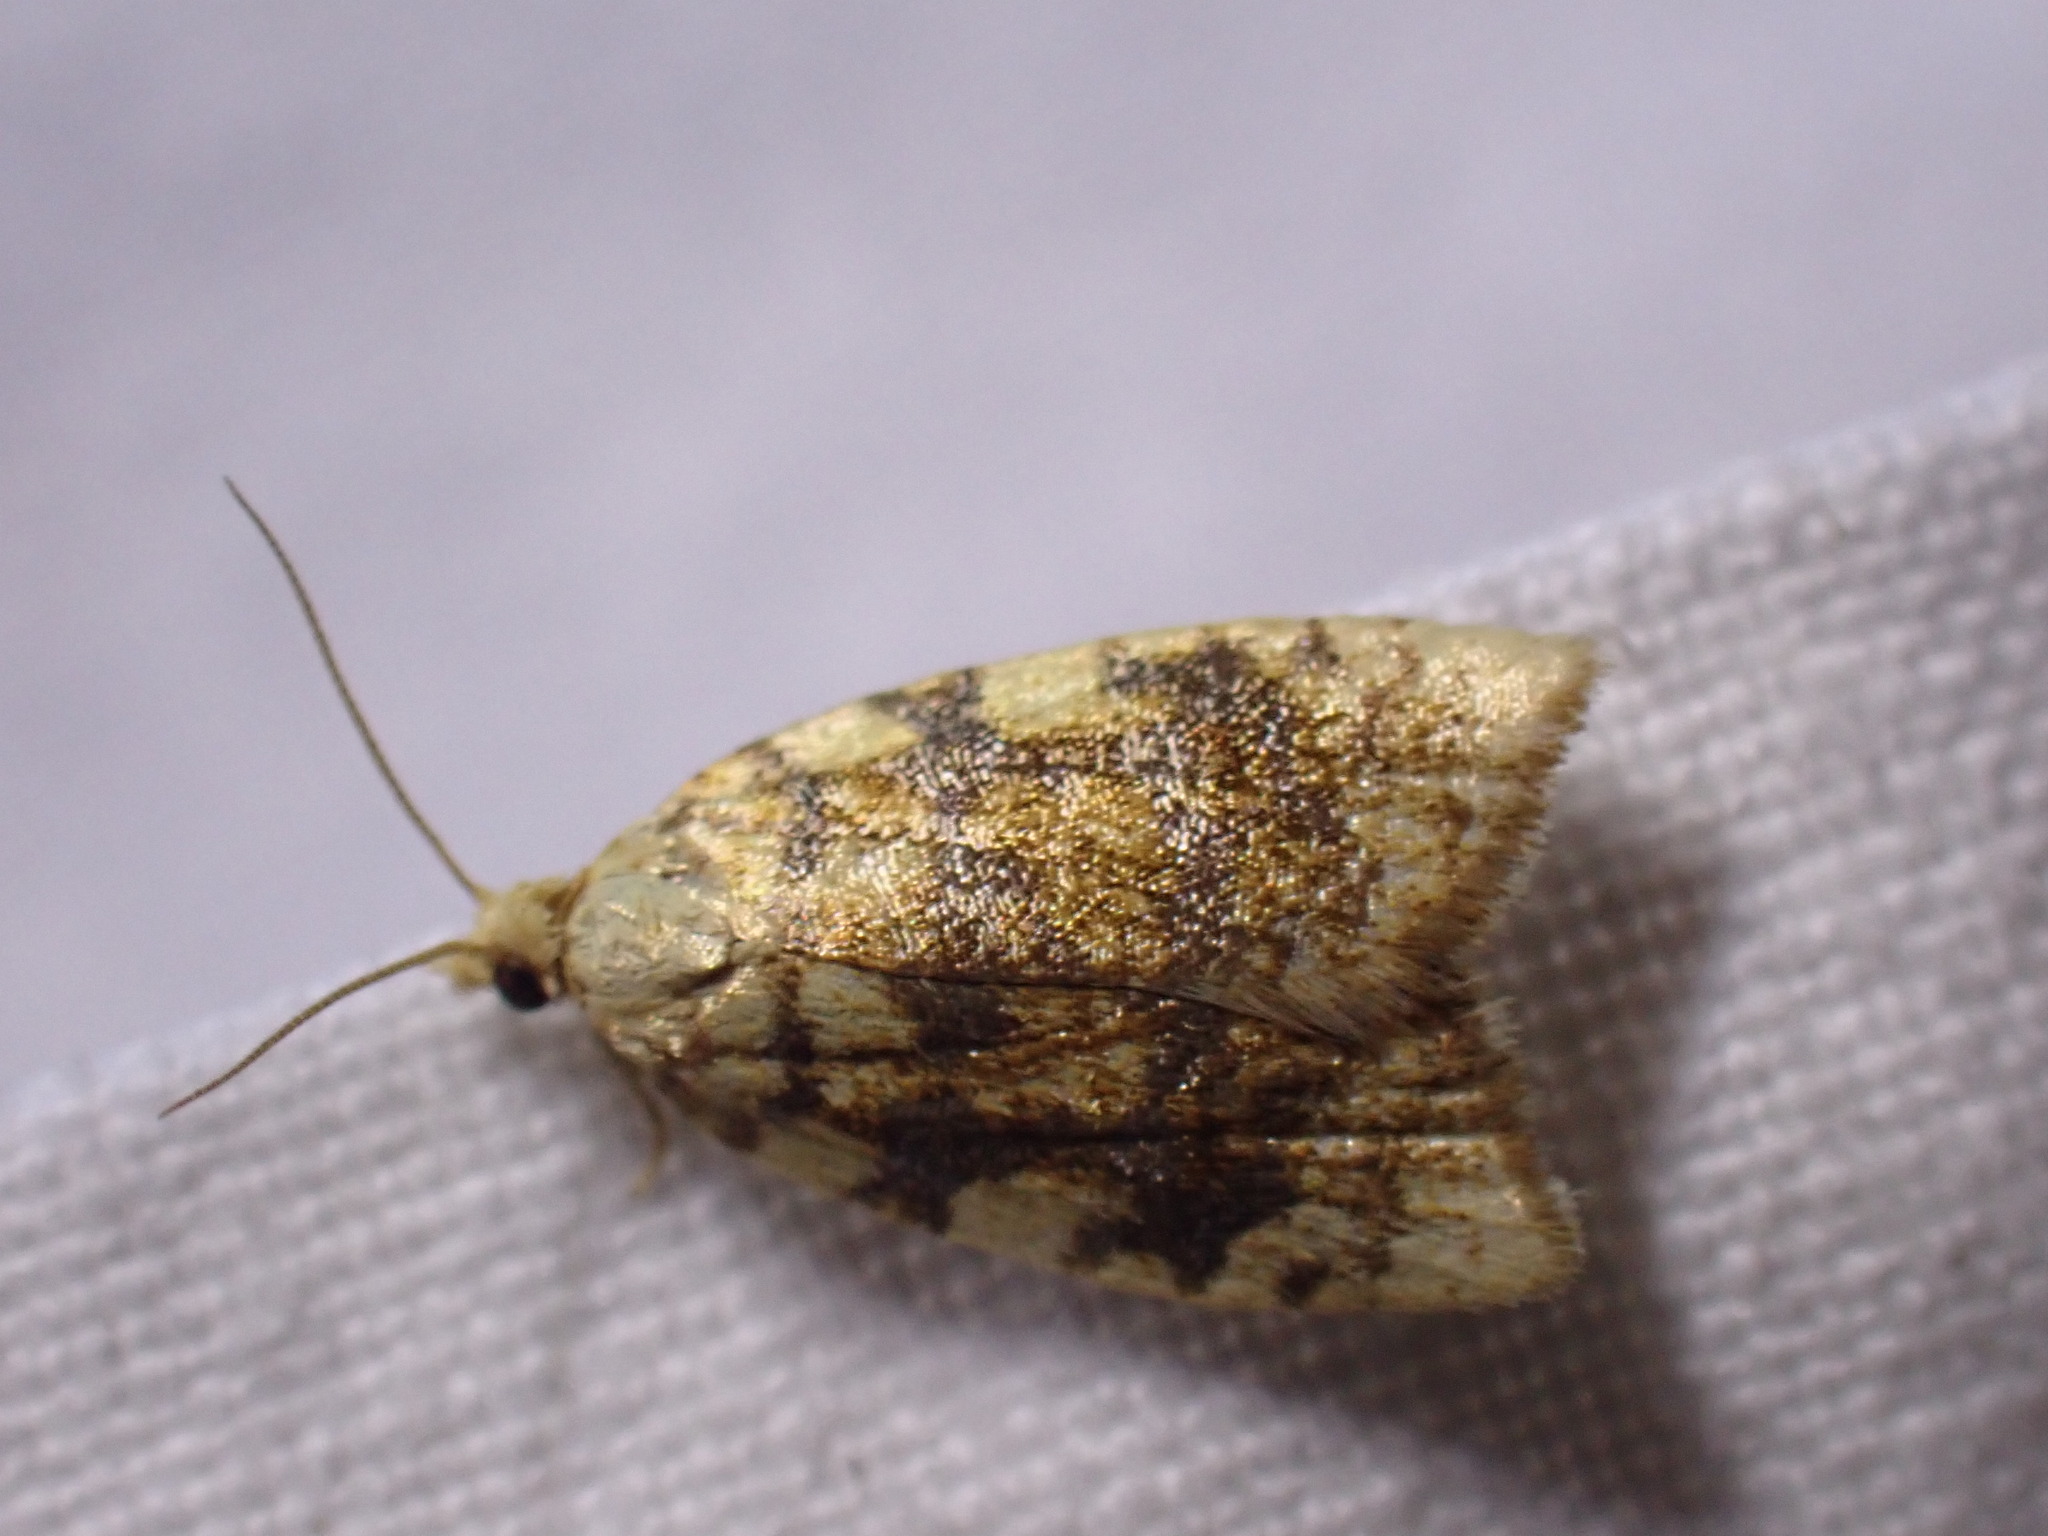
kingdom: Animalia
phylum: Arthropoda
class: Insecta
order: Lepidoptera
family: Tortricidae
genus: Aleimma
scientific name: Aleimma loeflingiana
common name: Yellow oak button
